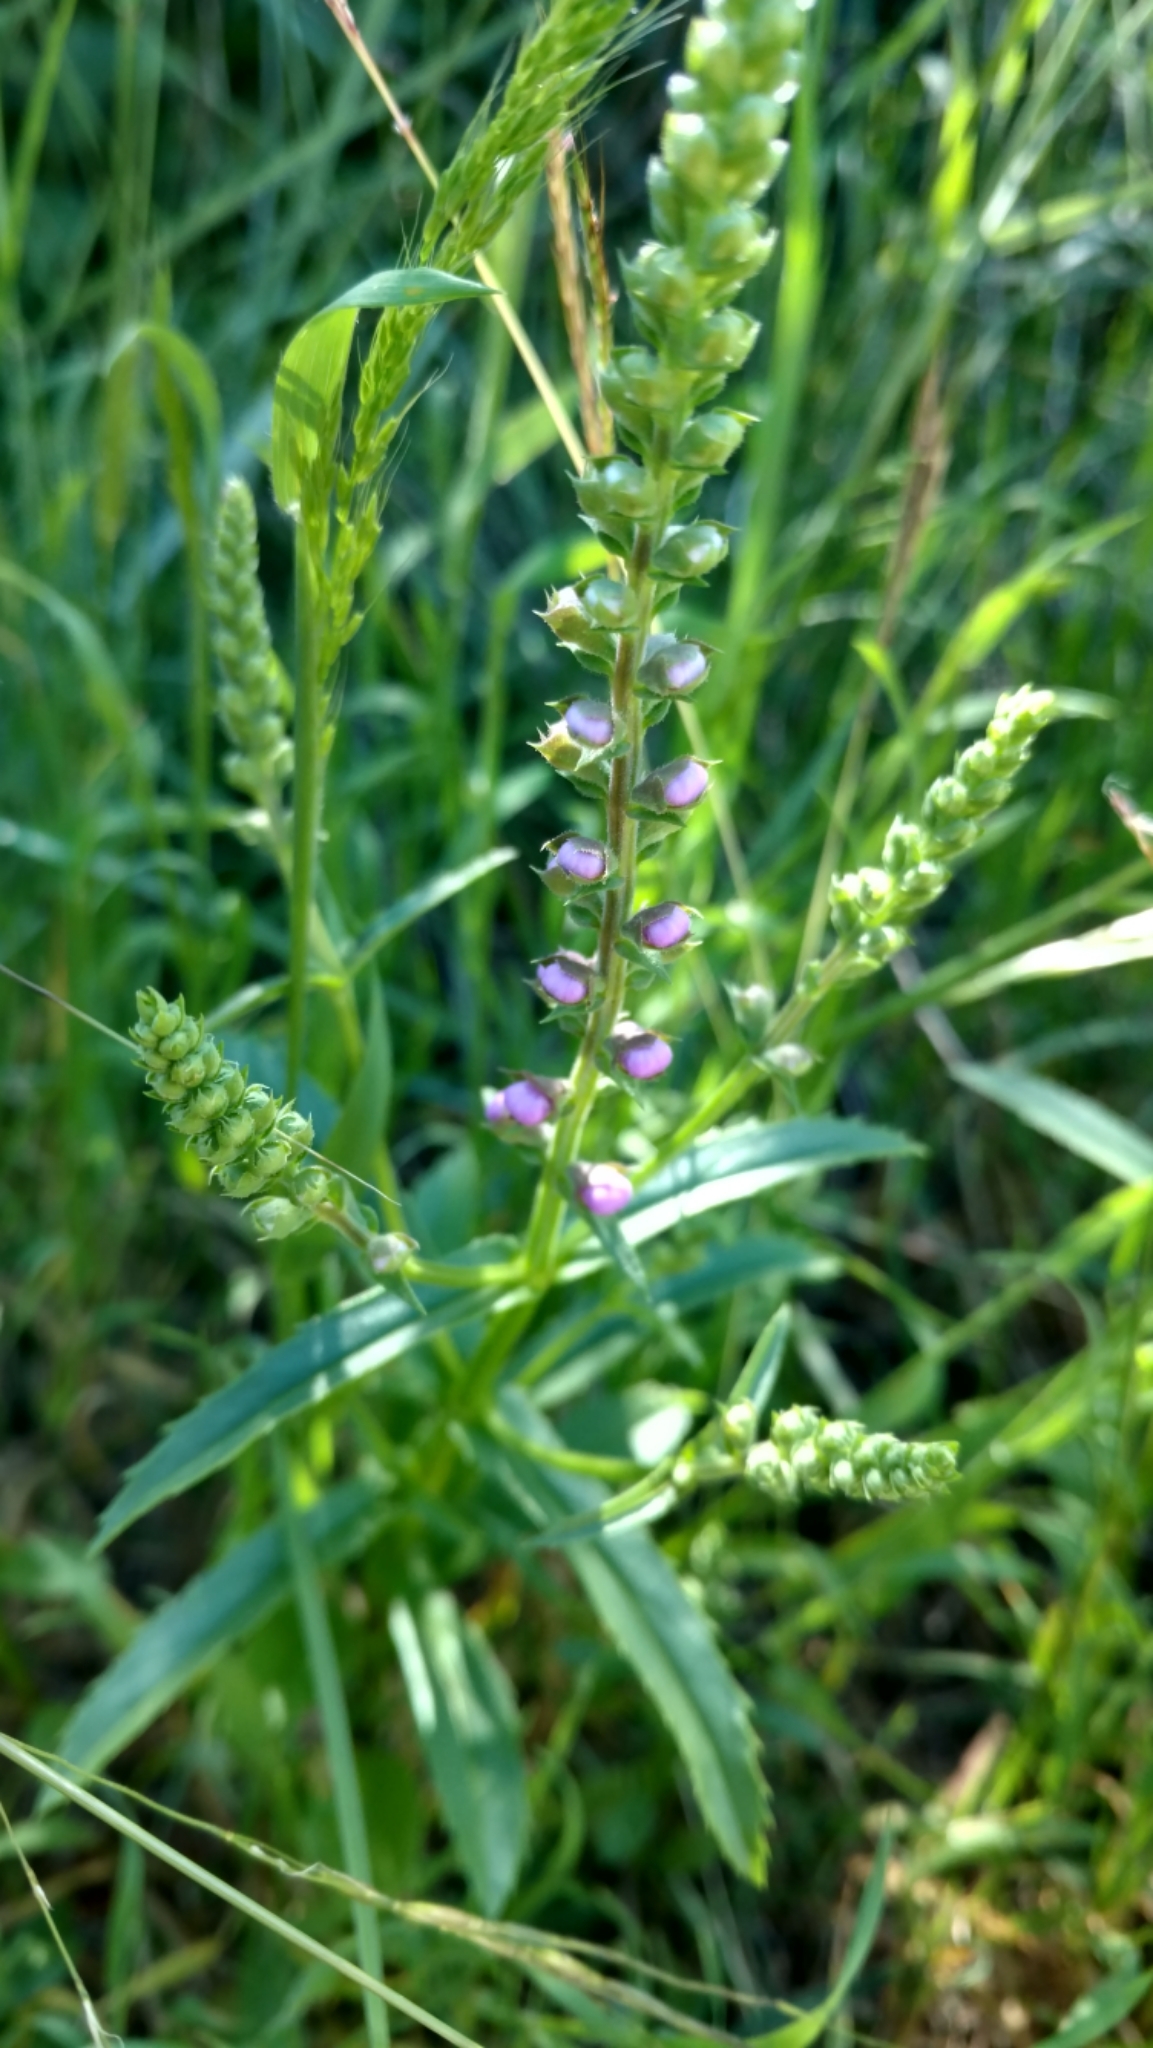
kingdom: Plantae
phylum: Tracheophyta
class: Magnoliopsida
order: Lamiales
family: Lamiaceae
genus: Warnockia
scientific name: Warnockia scutellarioides
